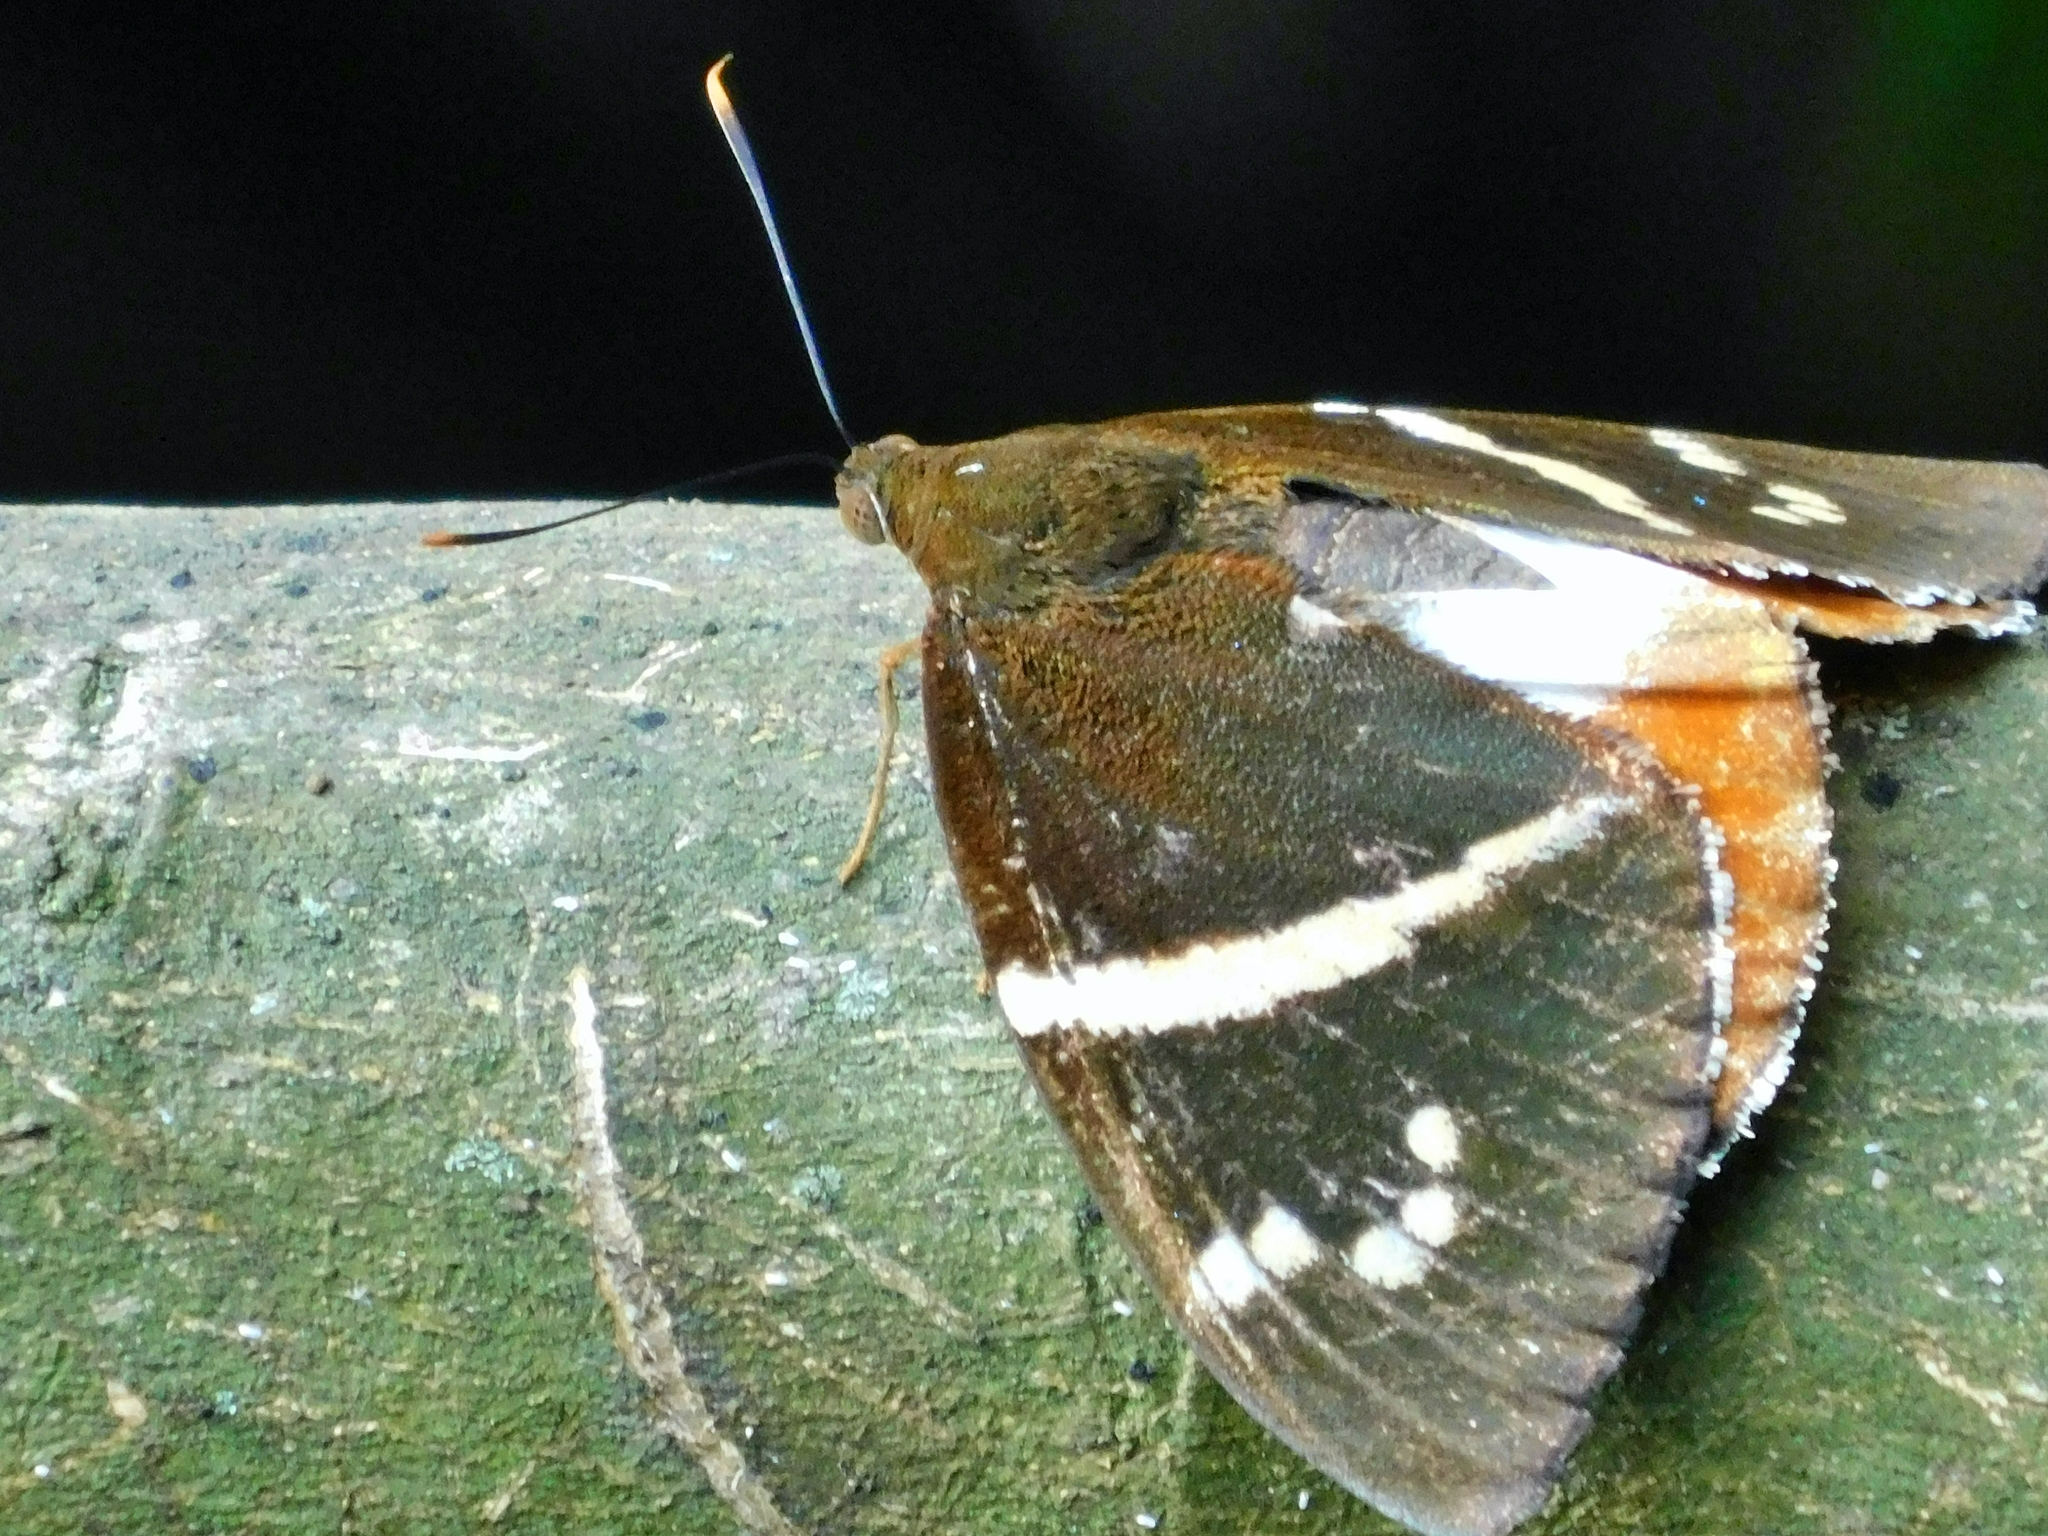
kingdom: Animalia
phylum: Arthropoda
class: Insecta
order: Lepidoptera
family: Castniidae
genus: Castniomera
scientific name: Castniomera drucei
